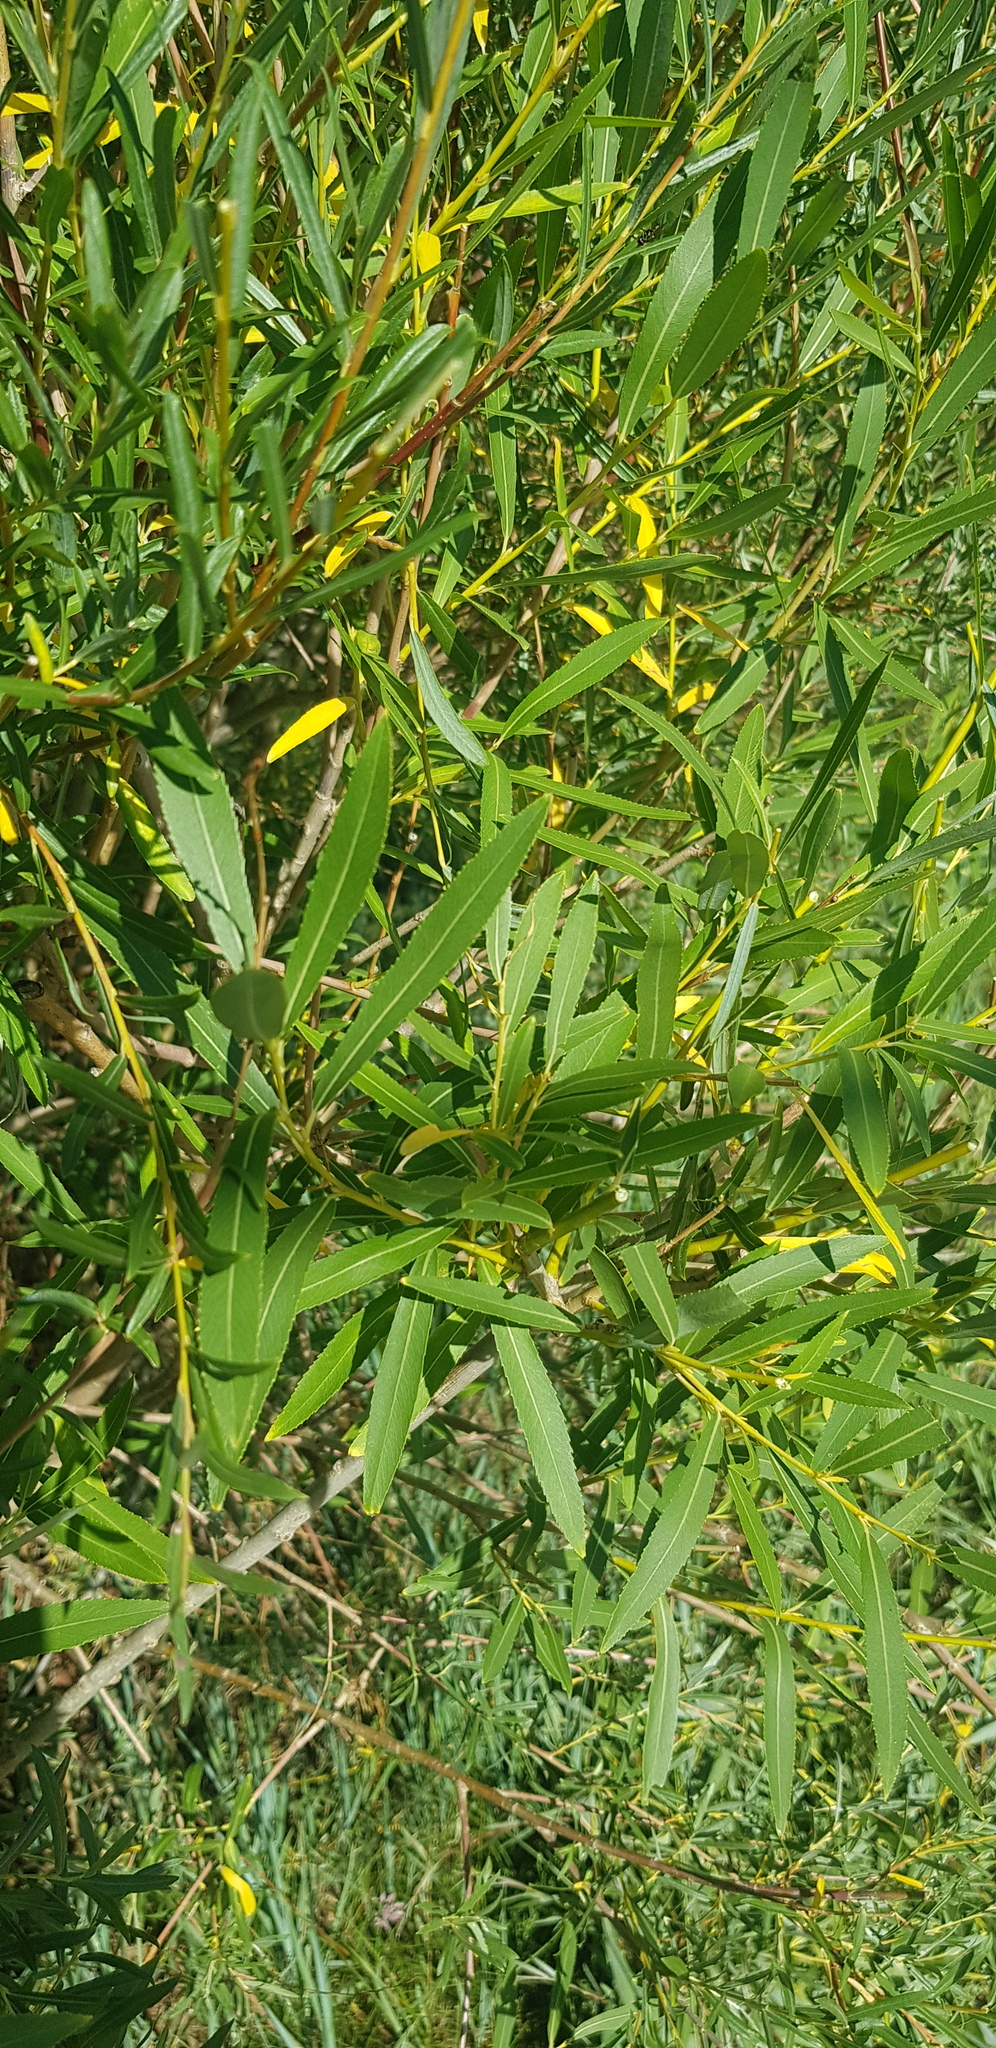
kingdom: Plantae
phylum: Tracheophyta
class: Magnoliopsida
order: Malpighiales
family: Salicaceae
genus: Salix
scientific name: Salix viminalis
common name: Osier
